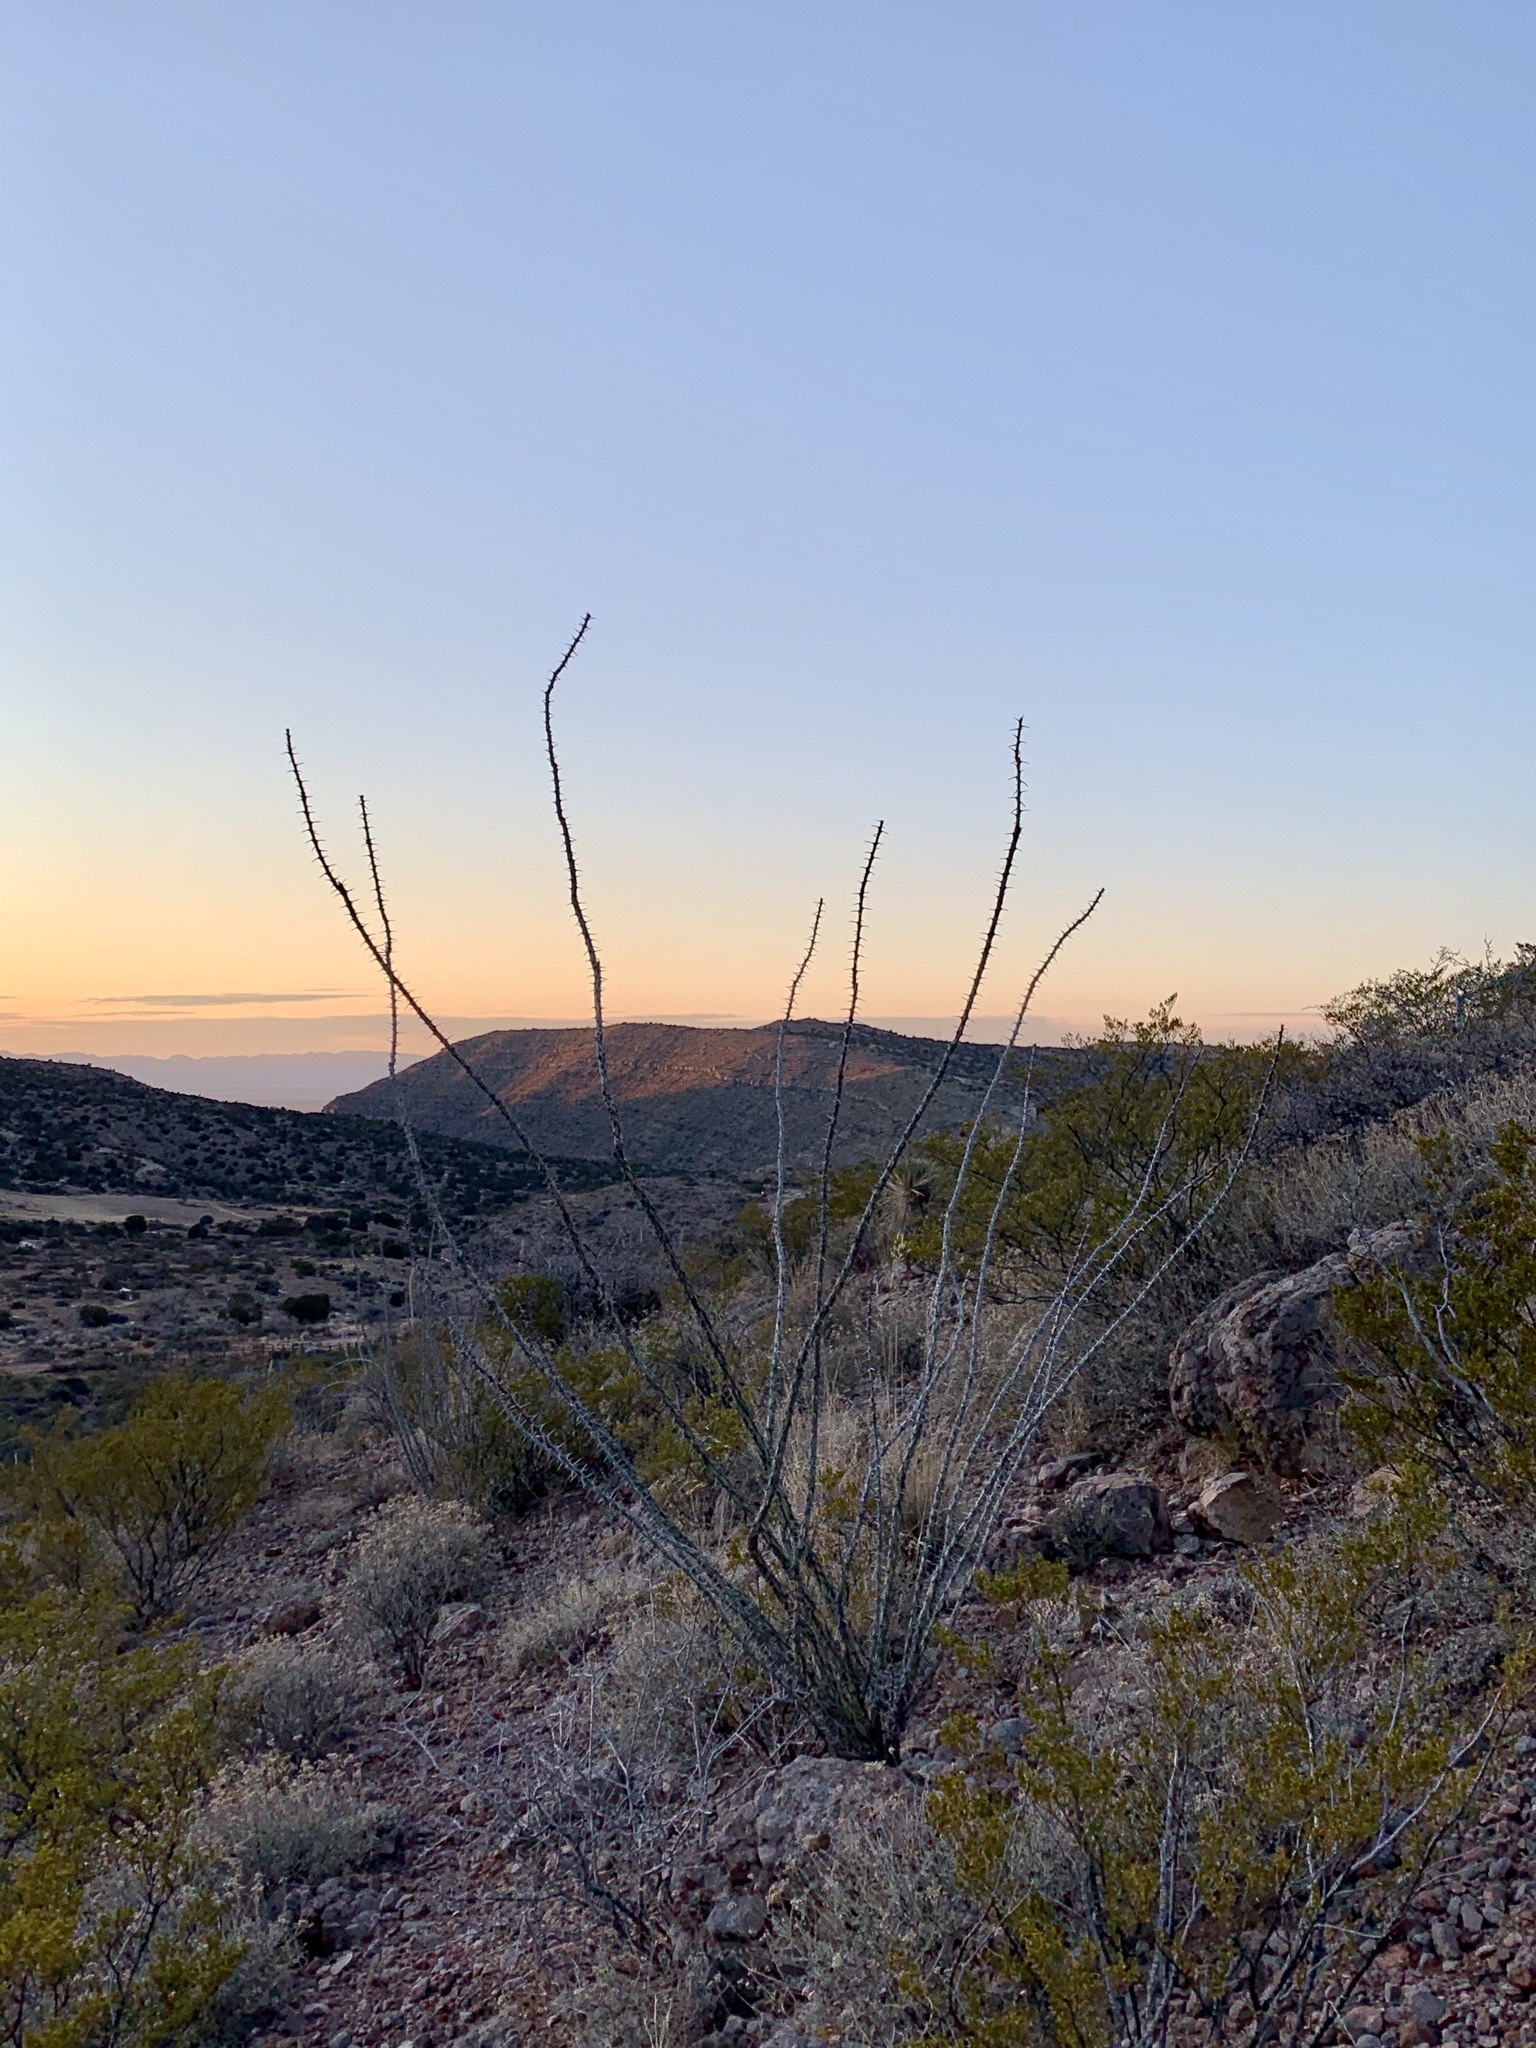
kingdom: Plantae
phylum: Tracheophyta
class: Magnoliopsida
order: Ericales
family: Fouquieriaceae
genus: Fouquieria
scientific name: Fouquieria splendens
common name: Vine-cactus
